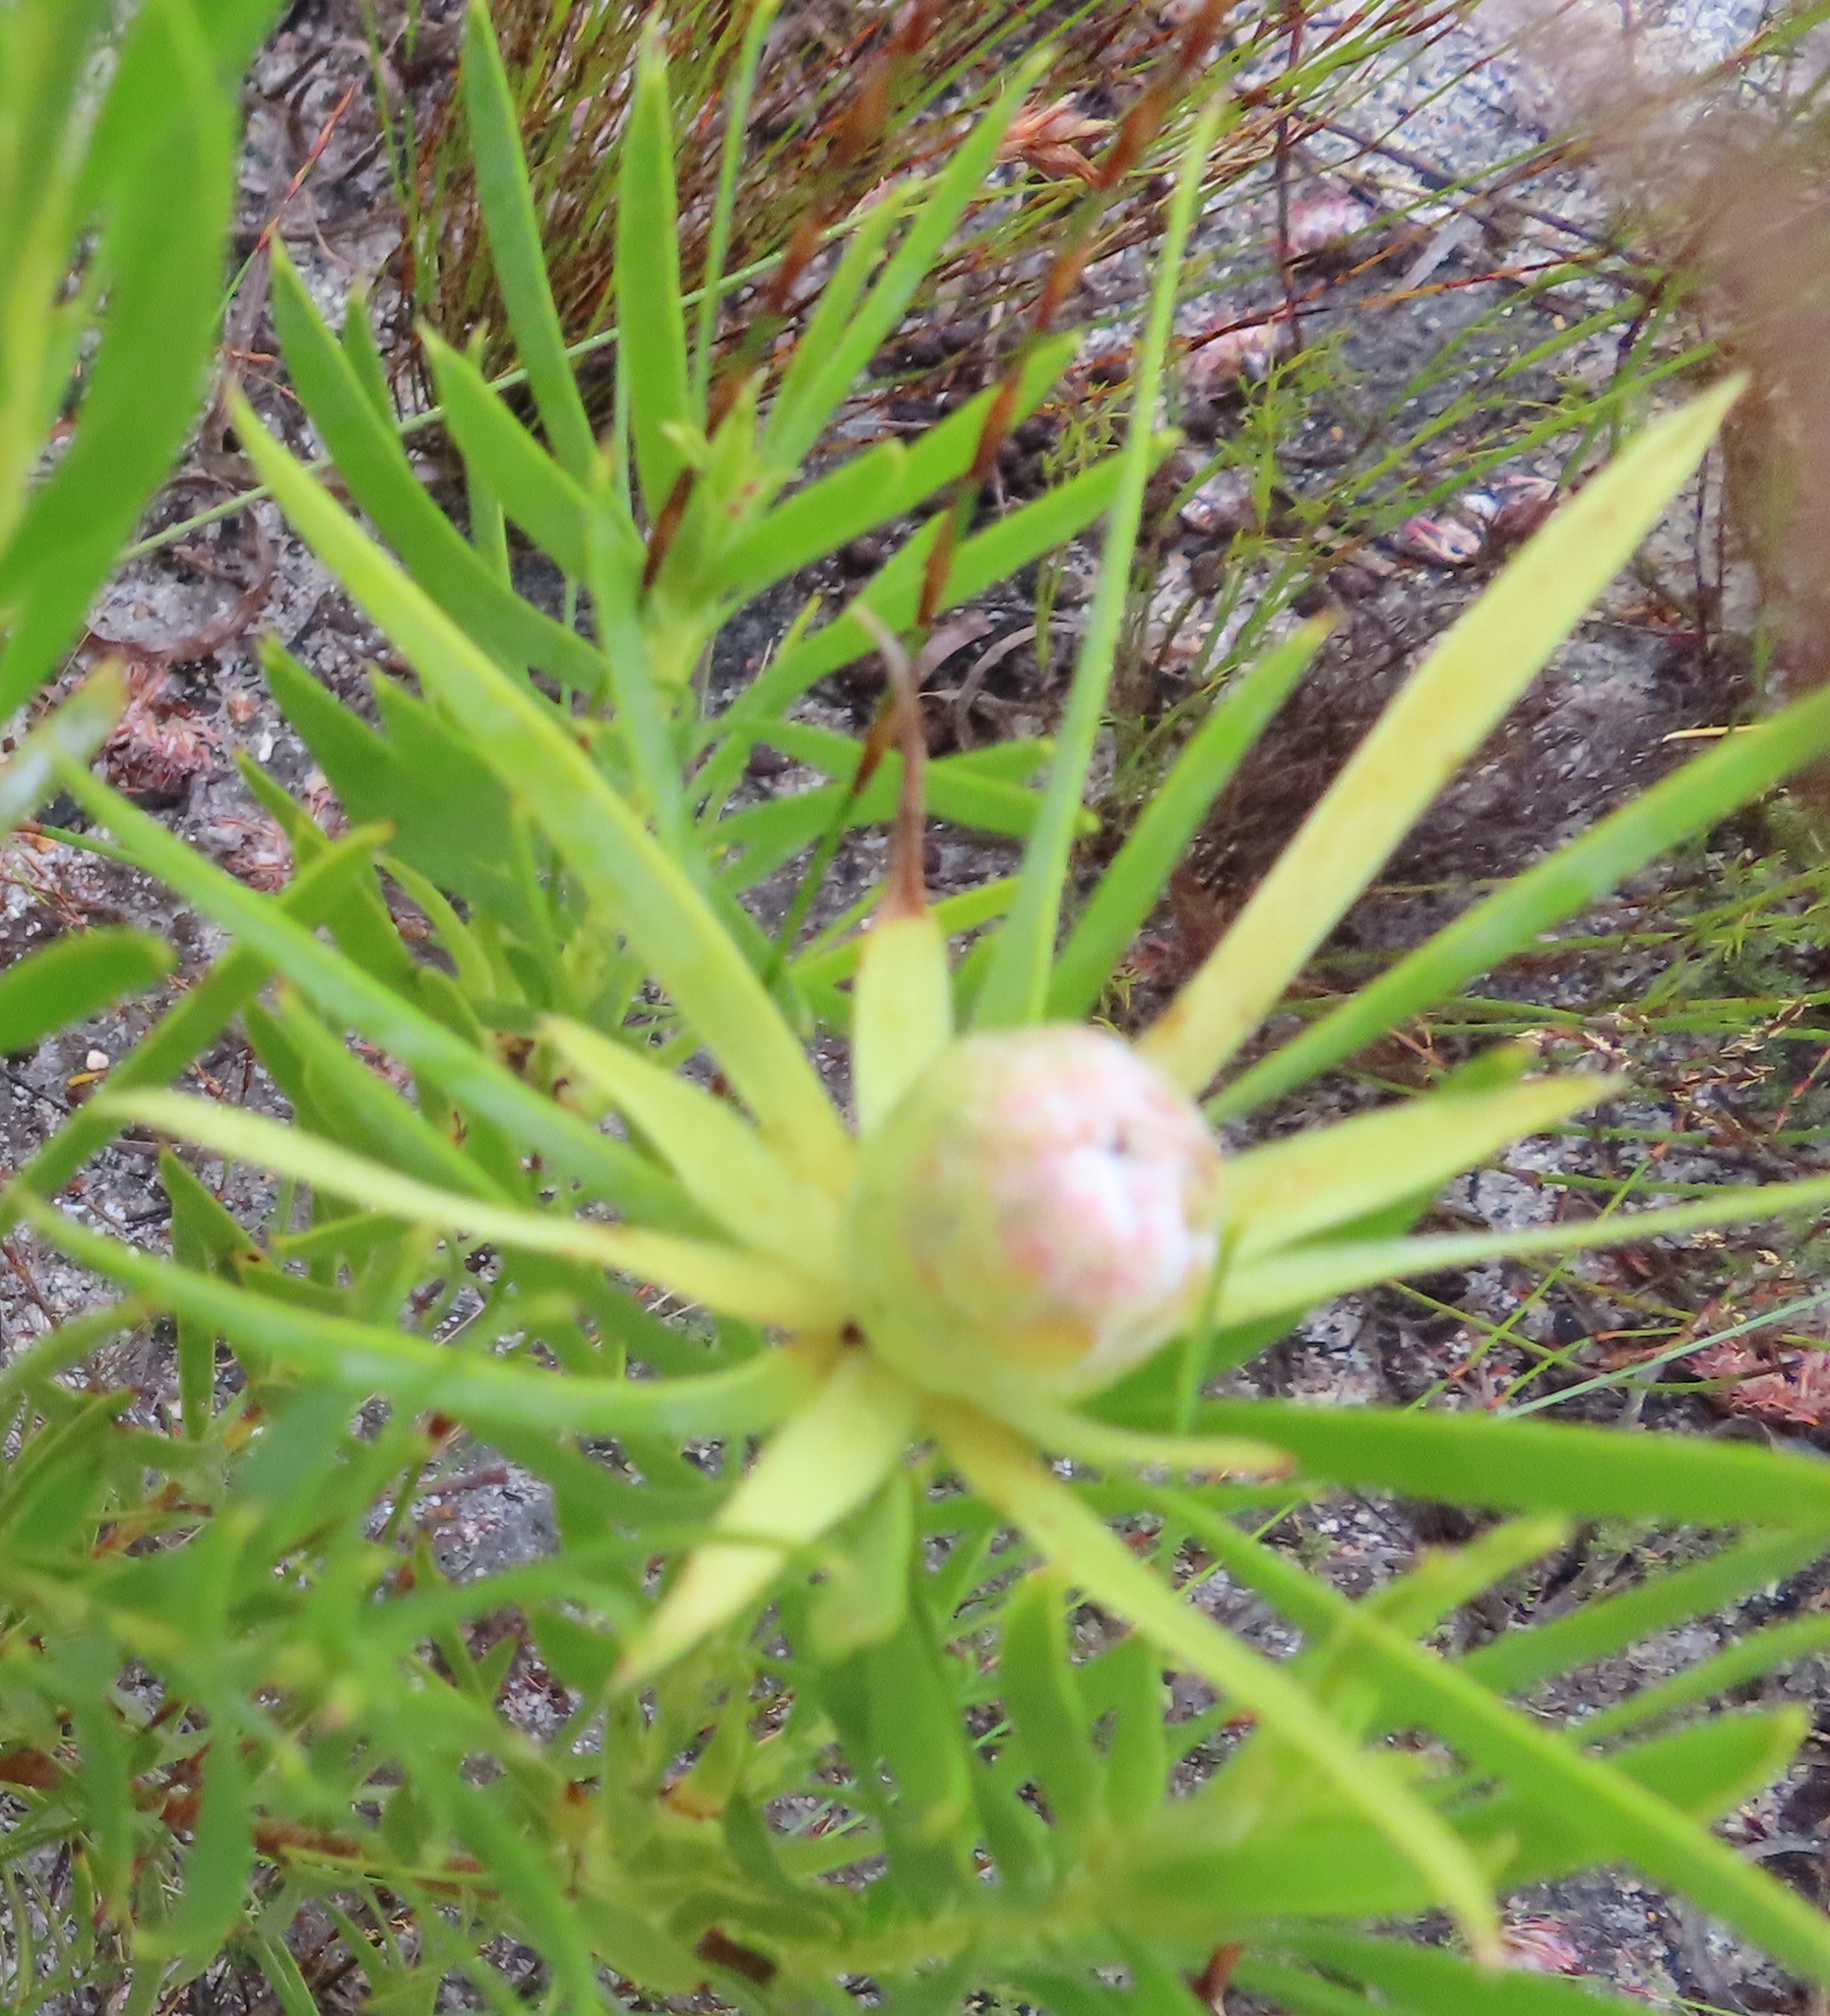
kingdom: Plantae
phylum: Tracheophyta
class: Magnoliopsida
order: Proteales
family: Proteaceae
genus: Leucadendron
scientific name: Leucadendron xanthoconus
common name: Sickle-leaf conebush
